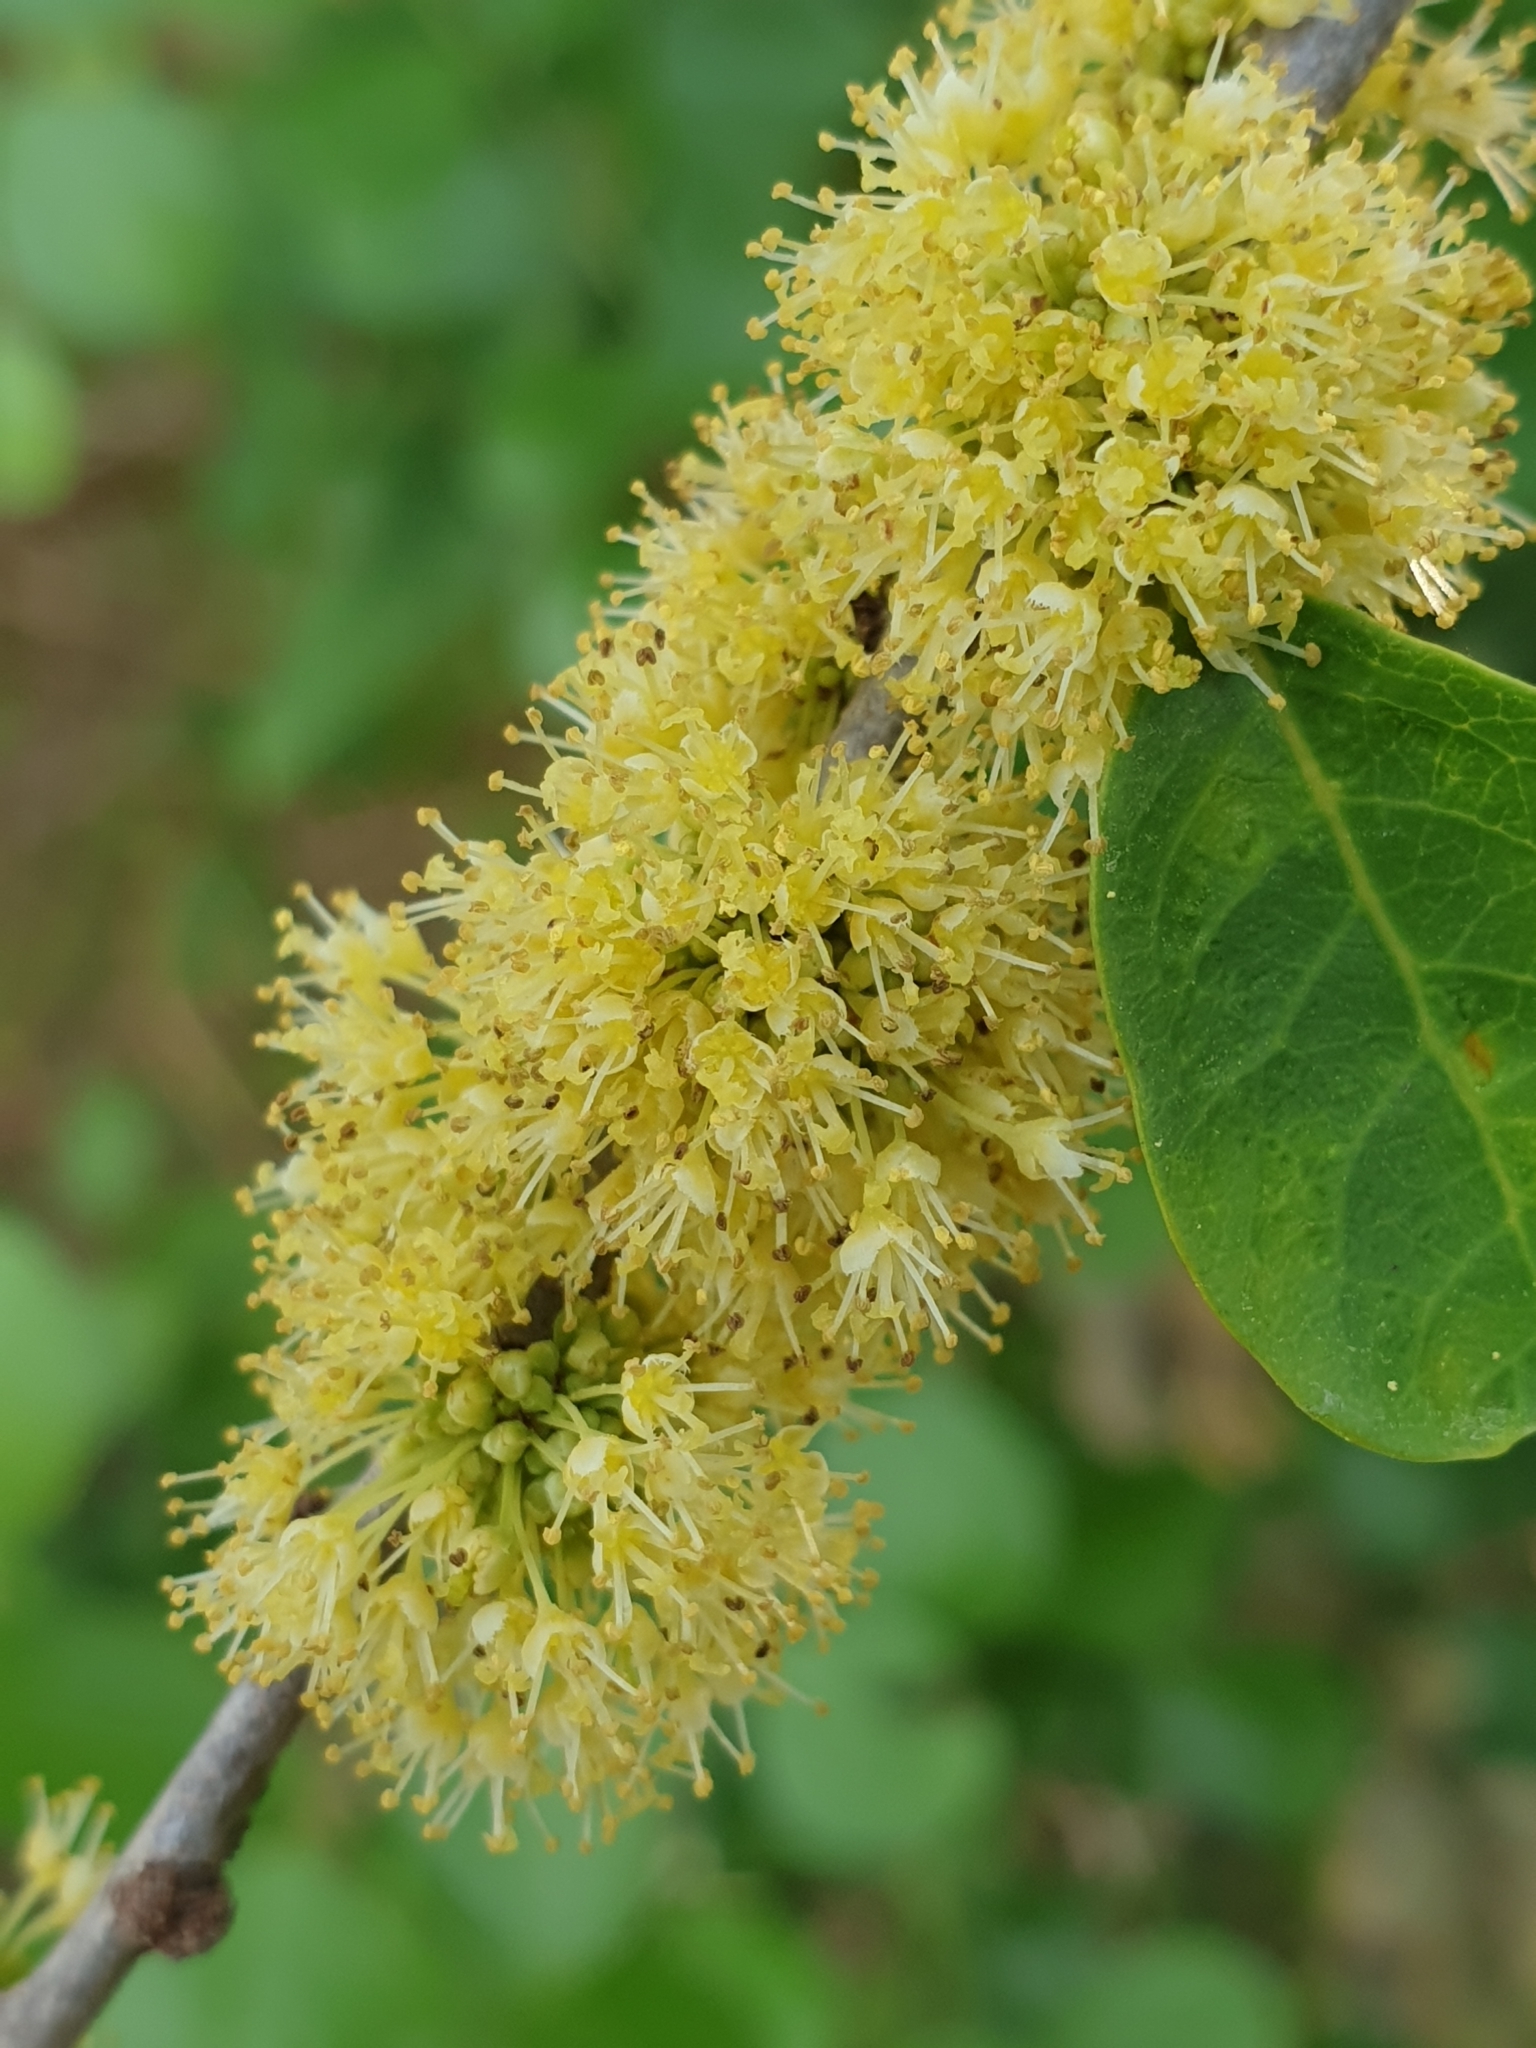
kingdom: Plantae
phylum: Tracheophyta
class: Magnoliopsida
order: Malpighiales
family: Phyllanthaceae
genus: Flueggea
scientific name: Flueggea leucopyrus
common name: Bushweed
